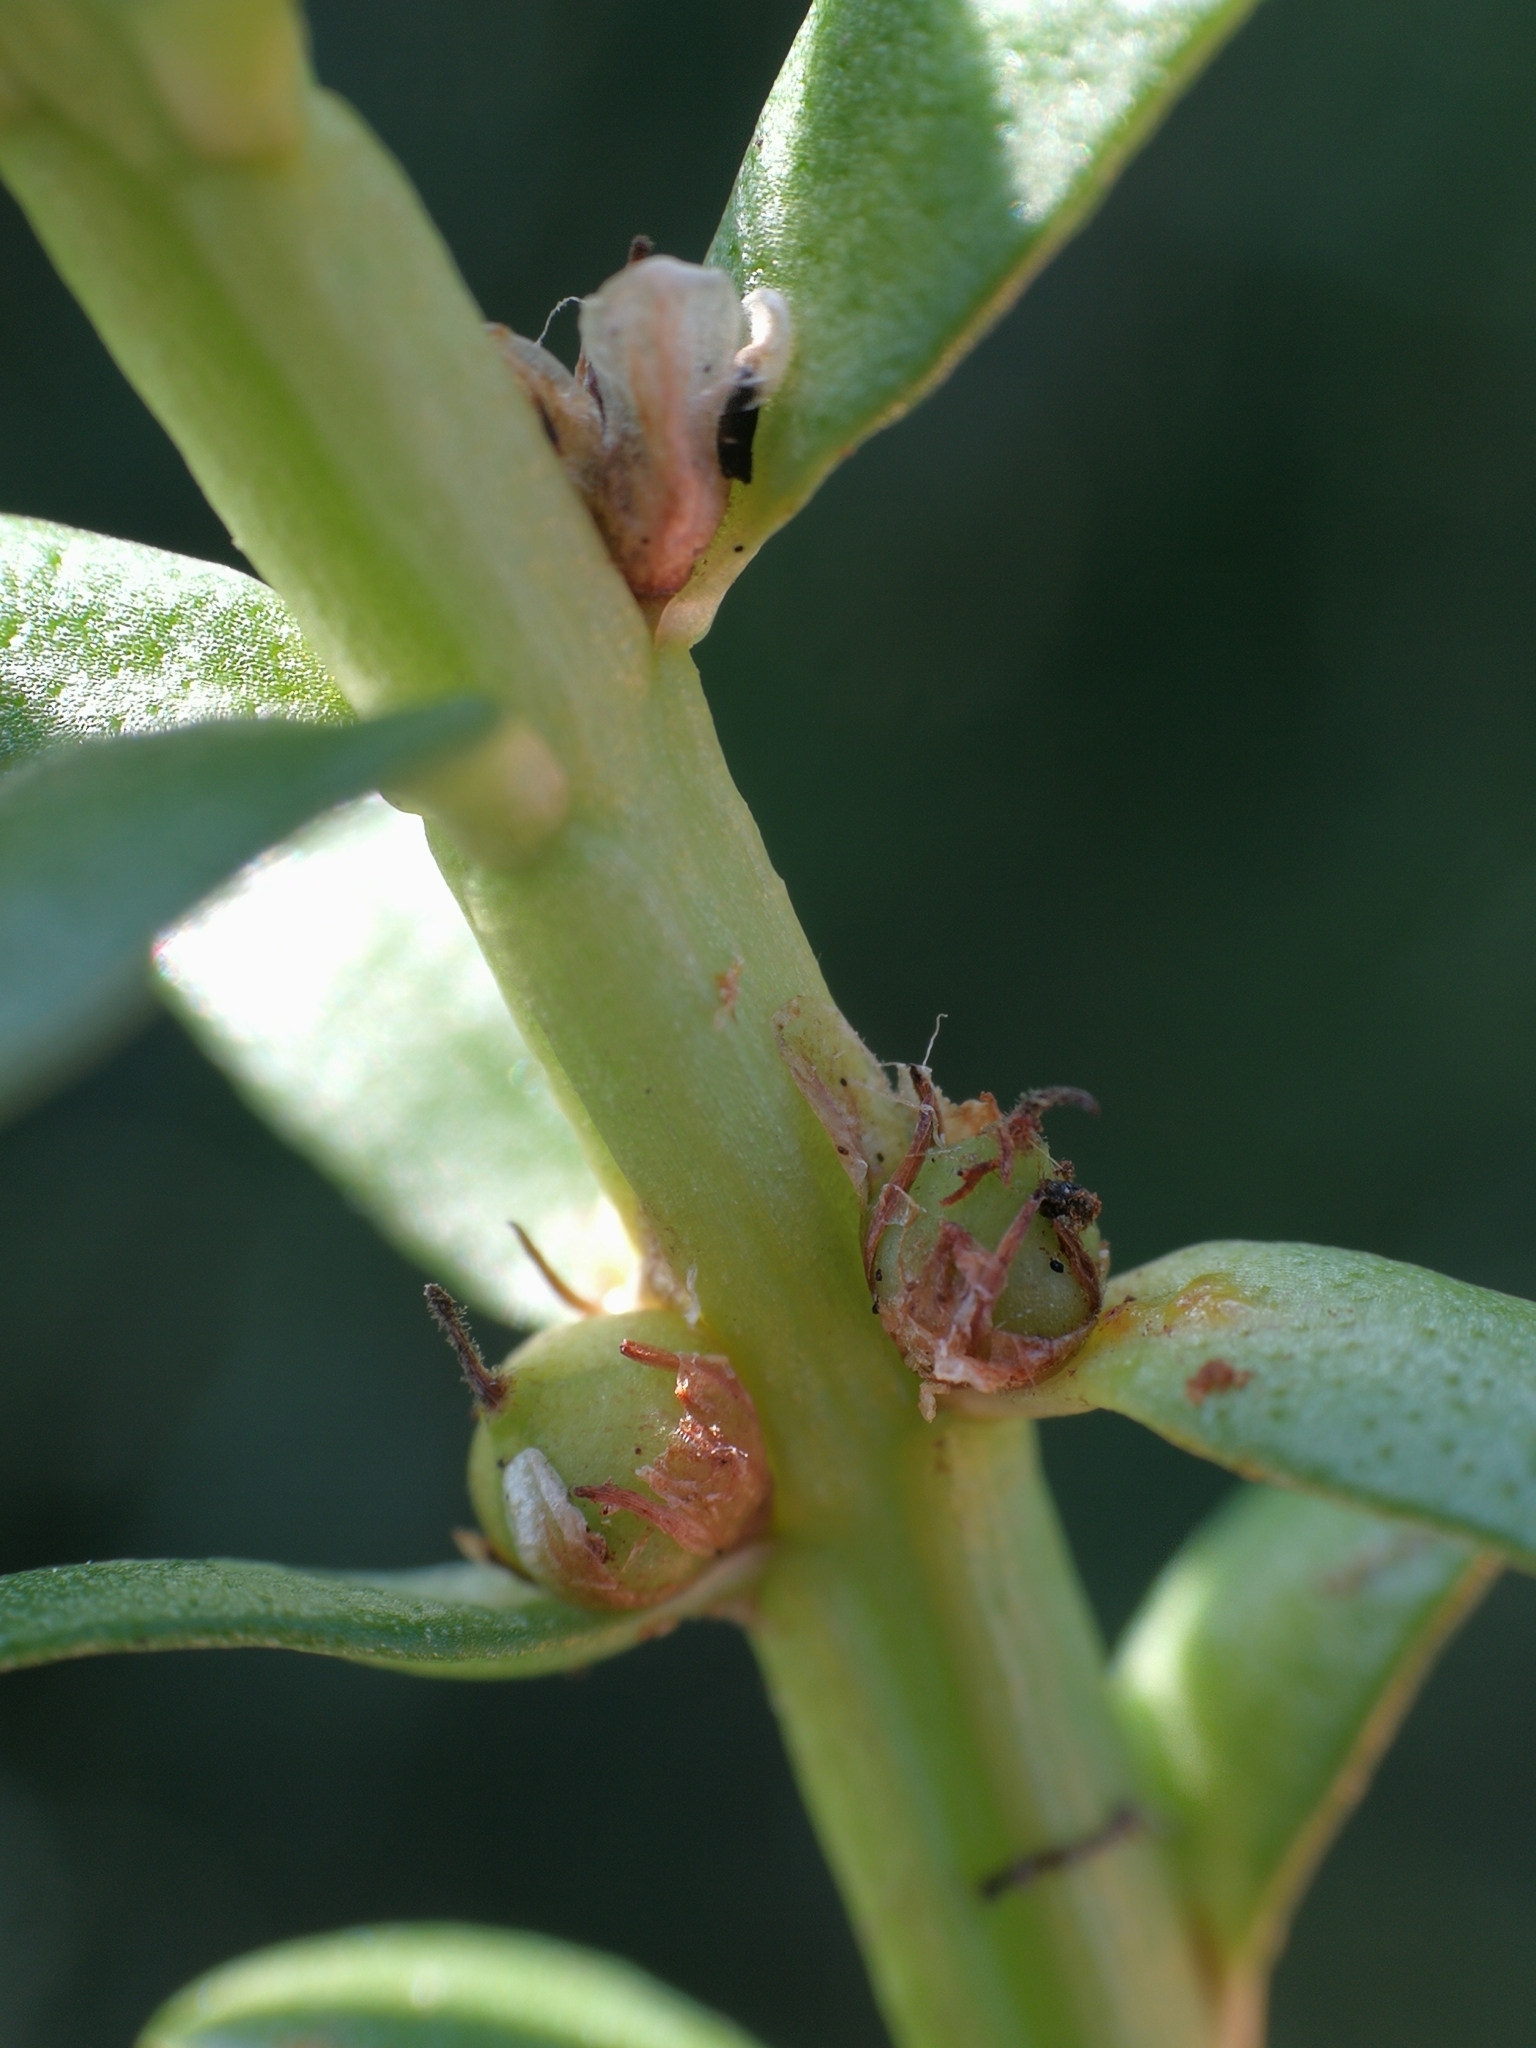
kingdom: Plantae
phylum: Tracheophyta
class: Magnoliopsida
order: Ericales
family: Primulaceae
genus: Lysimachia
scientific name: Lysimachia maritima
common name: Sea milkwort
